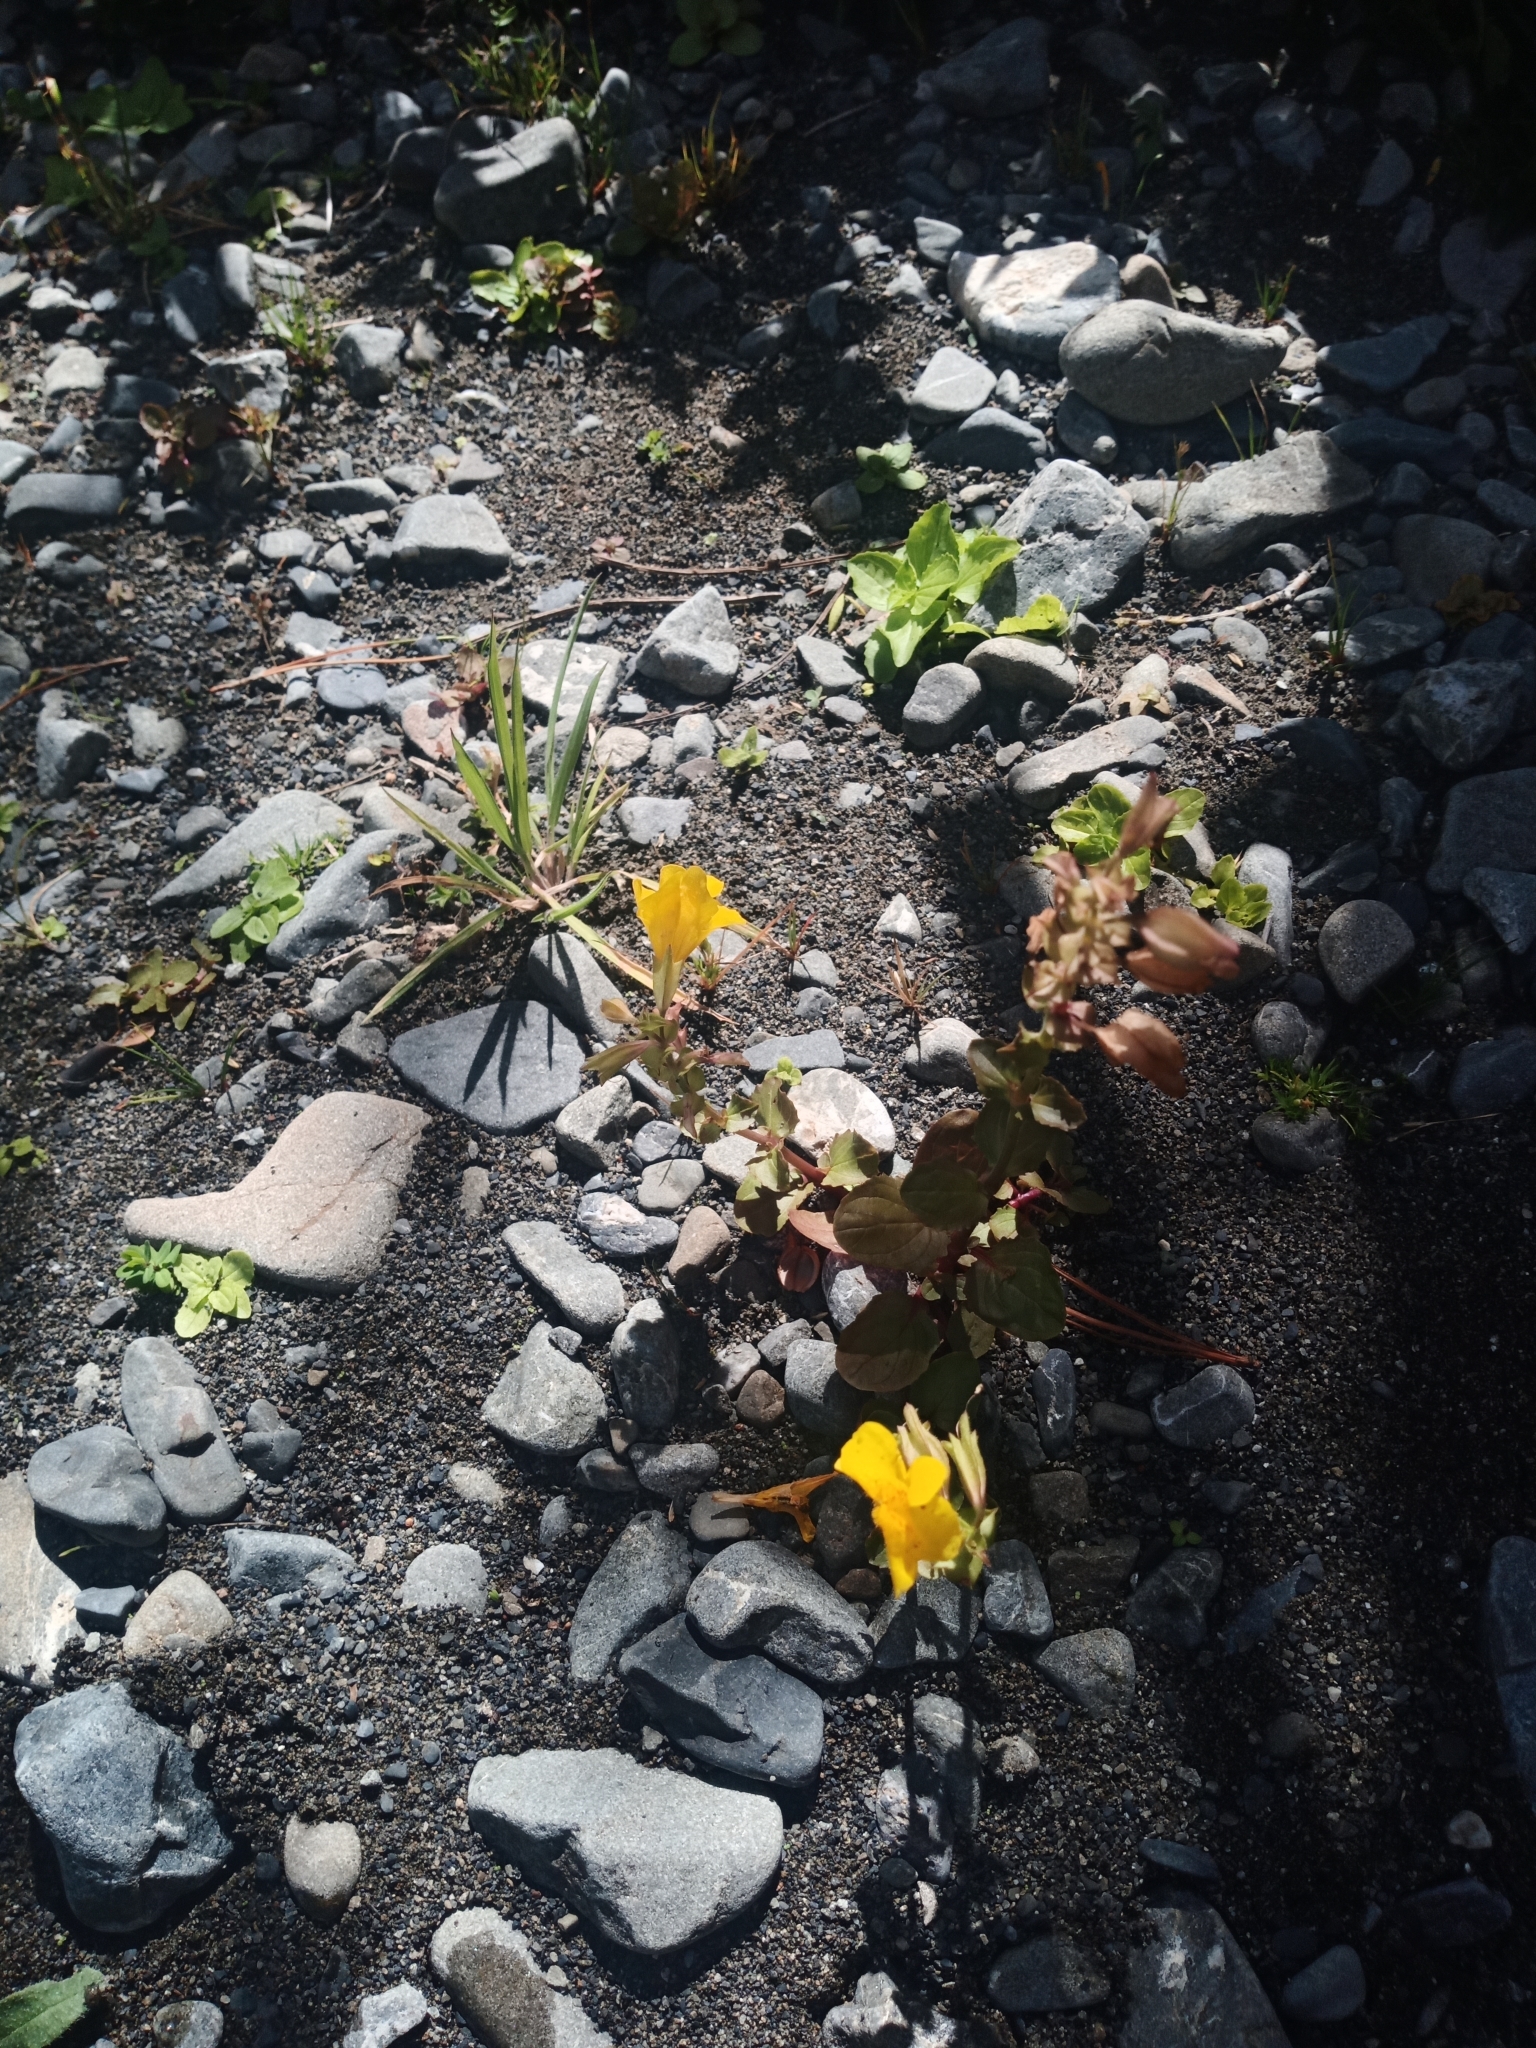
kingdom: Plantae
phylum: Tracheophyta
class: Magnoliopsida
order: Lamiales
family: Phrymaceae
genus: Erythranthe
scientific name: Erythranthe guttata
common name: Monkeyflower
